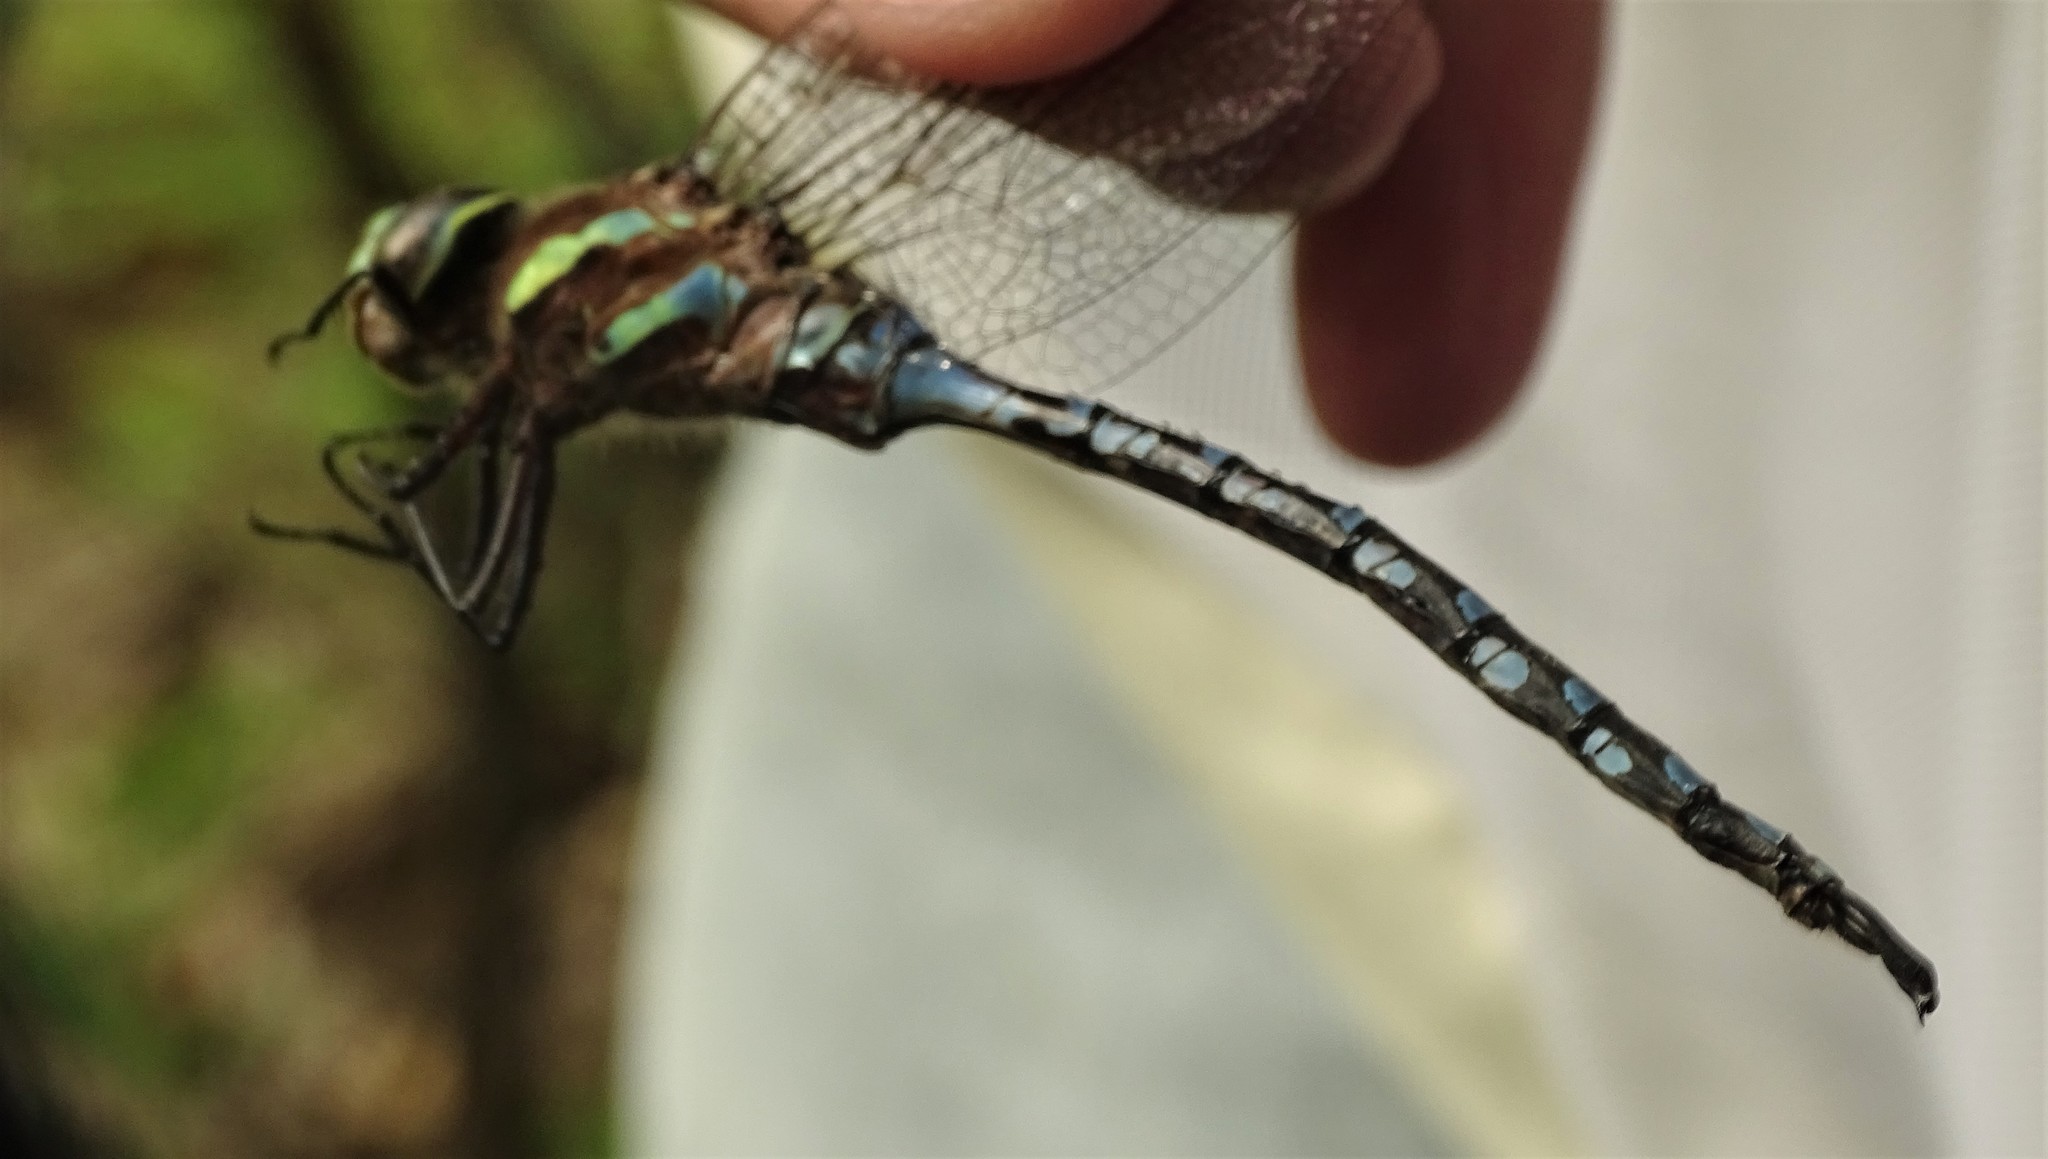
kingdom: Animalia
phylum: Arthropoda
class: Insecta
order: Odonata
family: Aeshnidae
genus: Aeshna
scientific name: Aeshna constricta
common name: Lance-tipped darner
